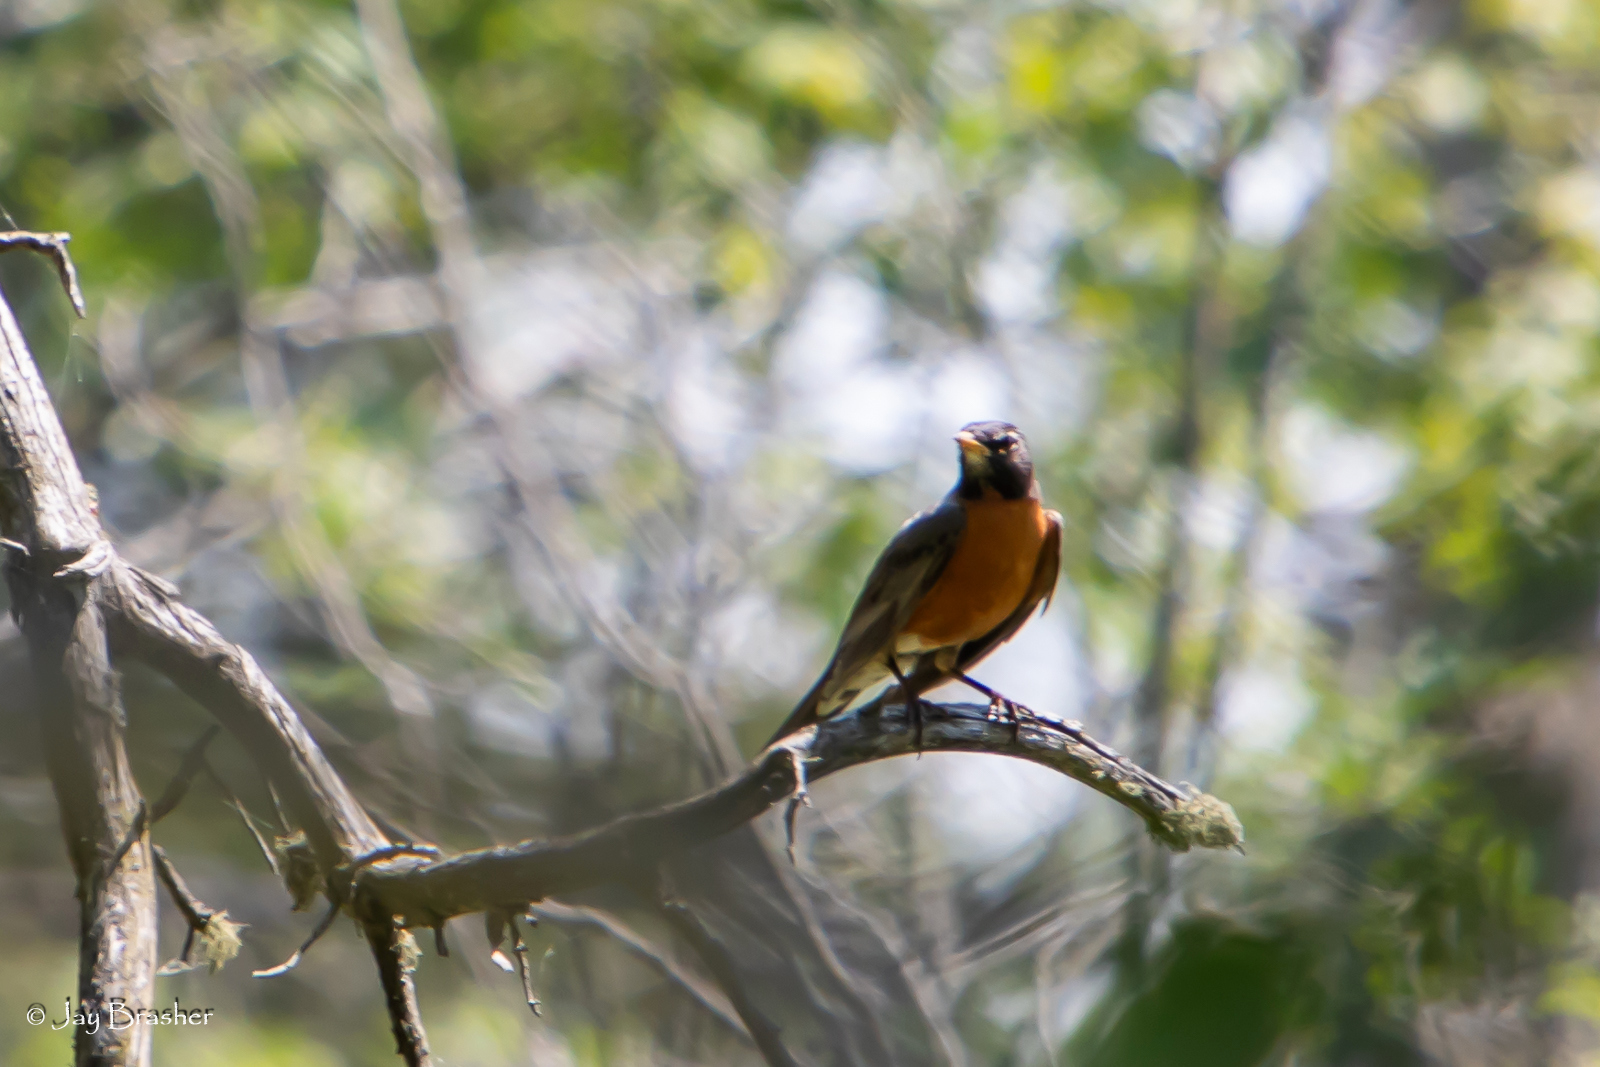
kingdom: Animalia
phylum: Chordata
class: Aves
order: Passeriformes
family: Turdidae
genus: Turdus
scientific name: Turdus migratorius
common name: American robin
